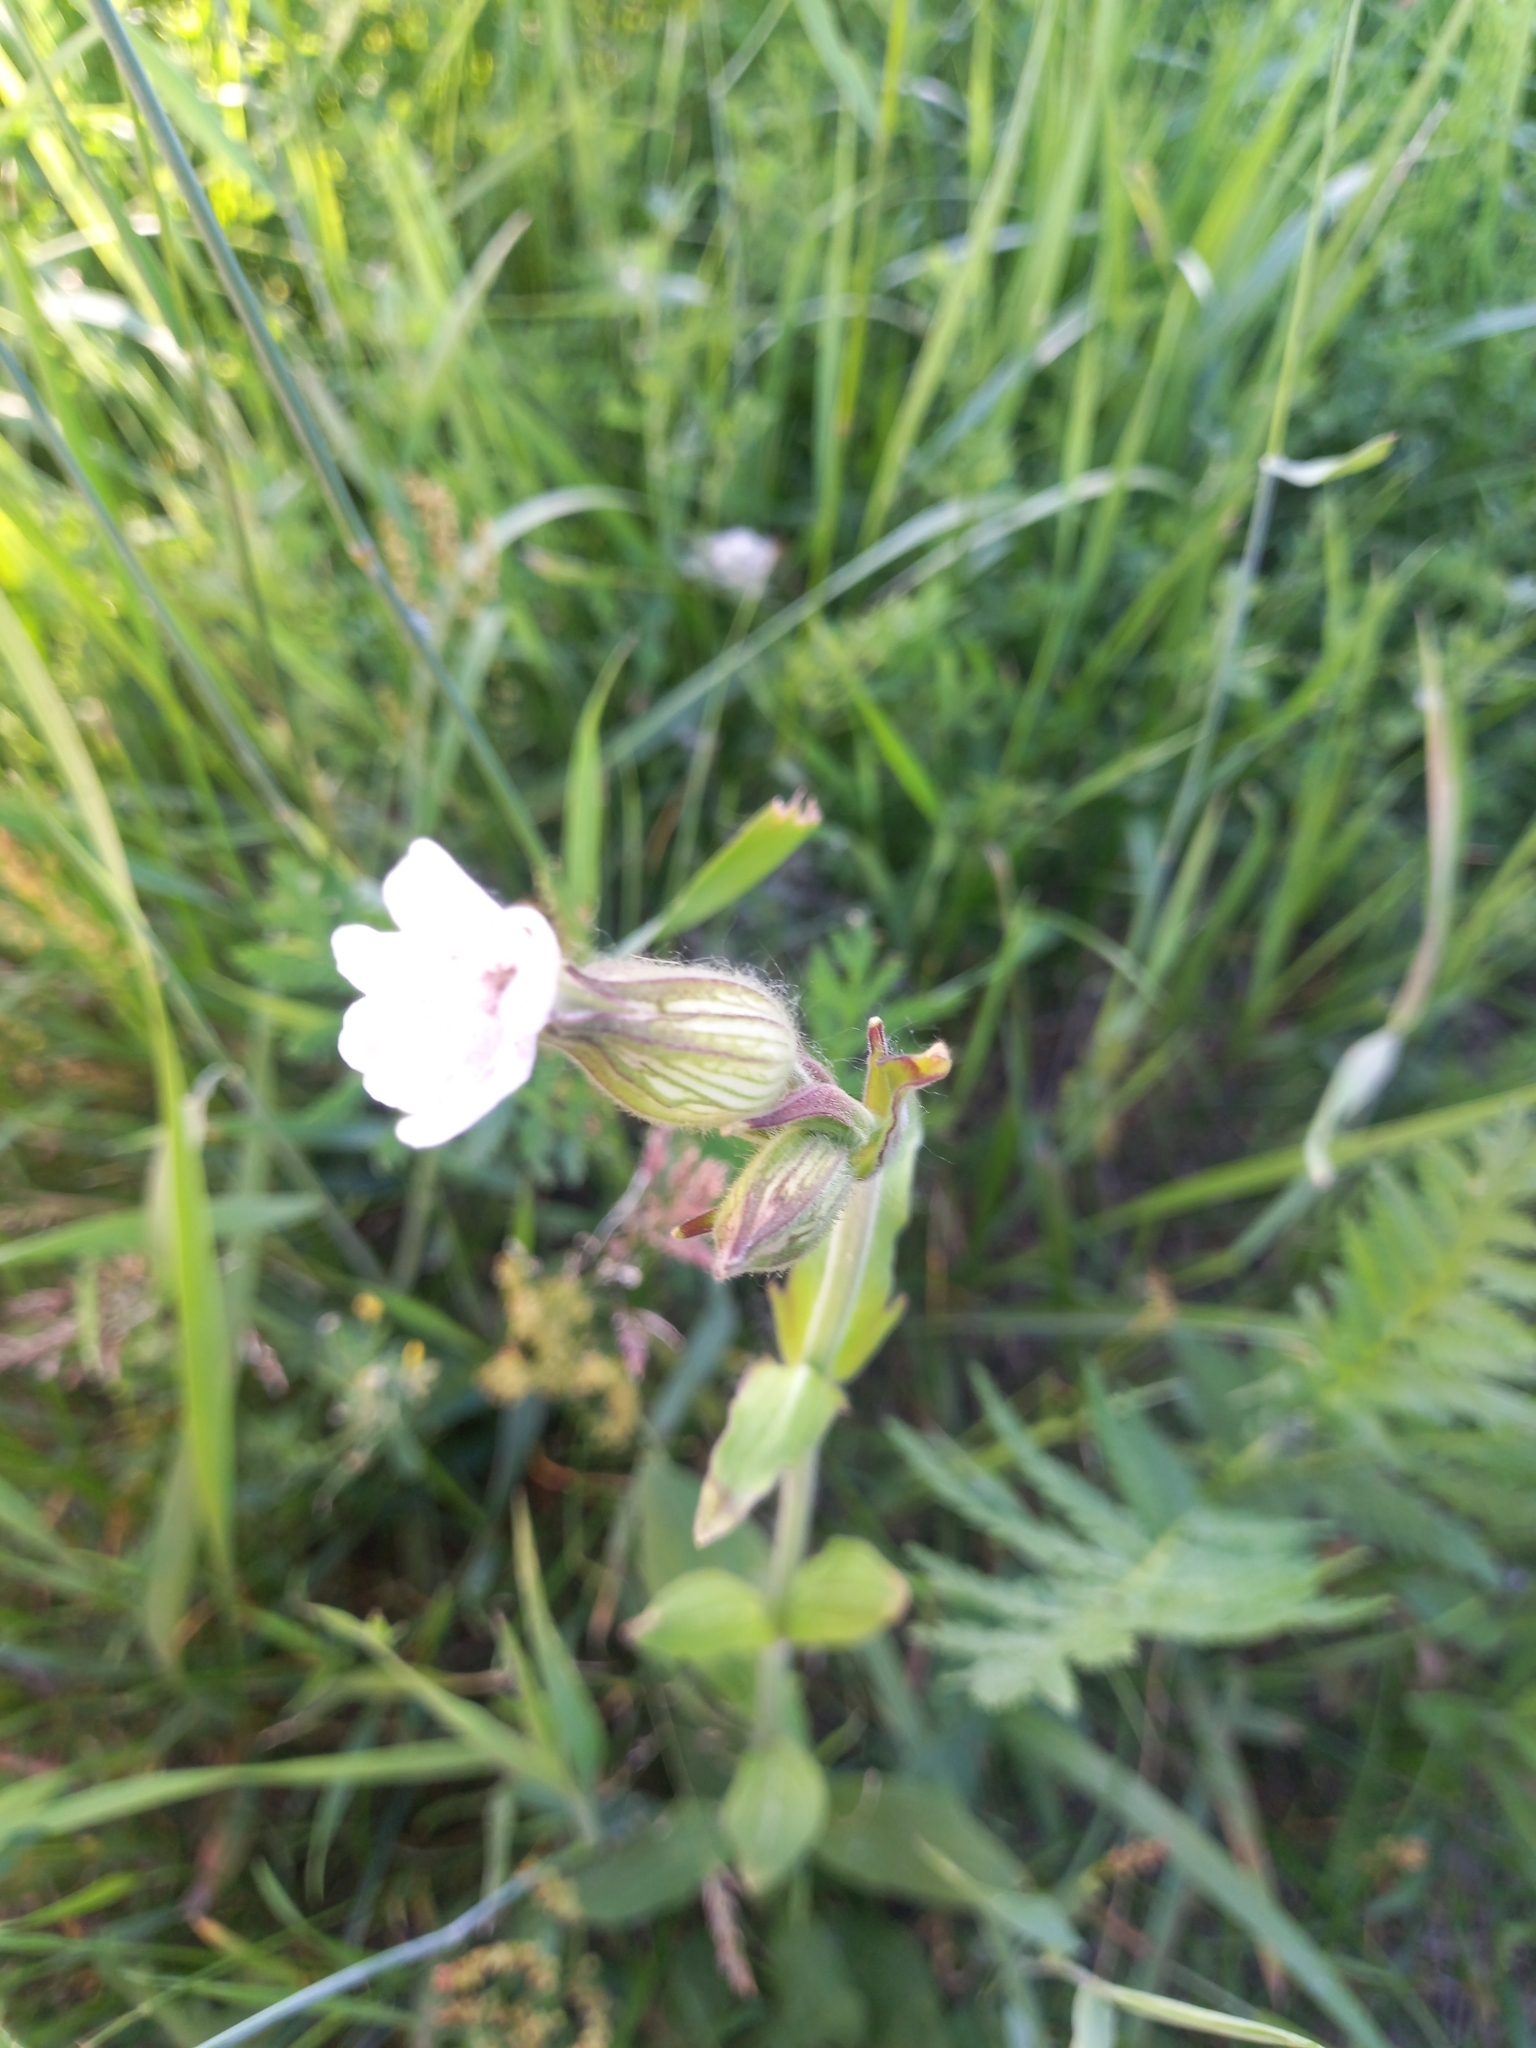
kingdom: Plantae
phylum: Tracheophyta
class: Magnoliopsida
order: Caryophyllales
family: Caryophyllaceae
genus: Silene
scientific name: Silene latifolia
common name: White campion
